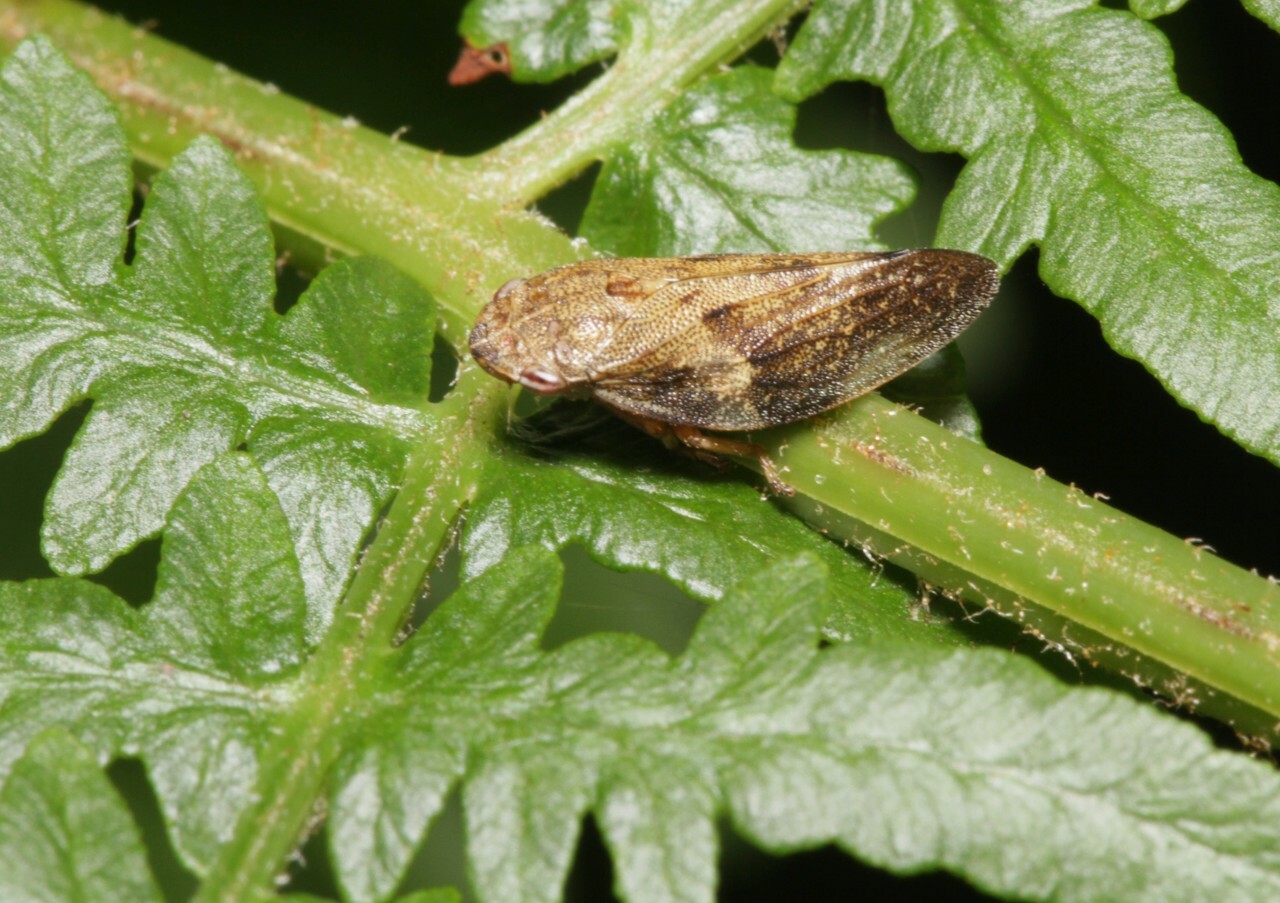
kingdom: Animalia
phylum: Arthropoda
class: Insecta
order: Hemiptera
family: Aphrophoridae
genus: Aphrophora
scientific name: Aphrophora alni
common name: European alder spittlebug
